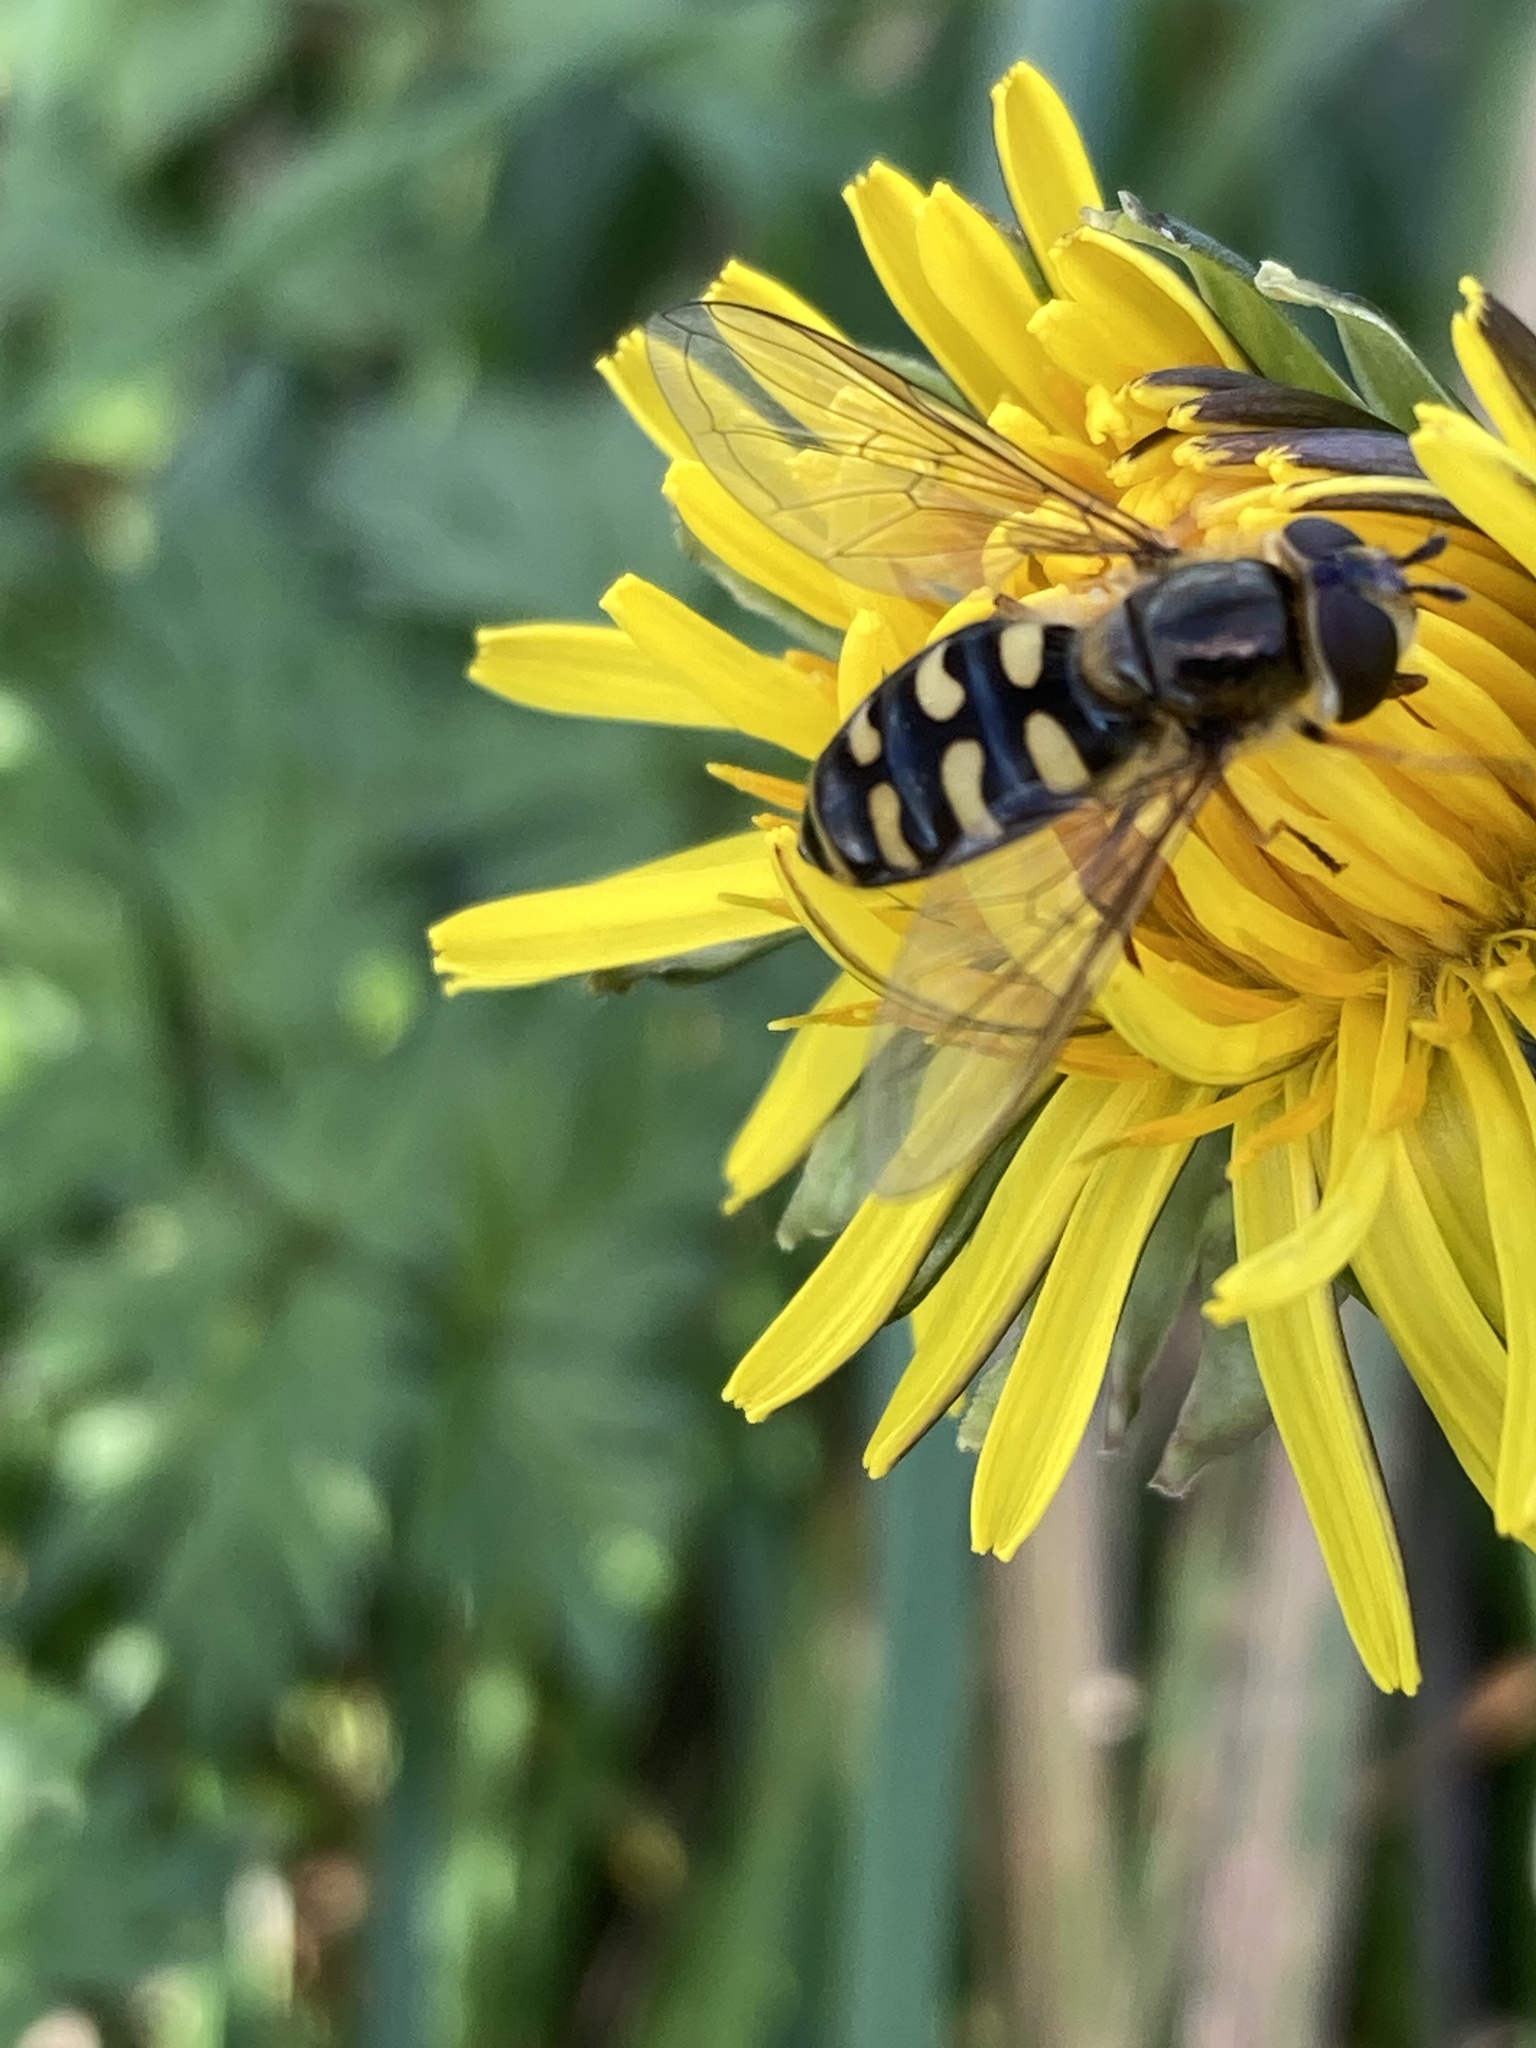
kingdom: Animalia
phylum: Arthropoda
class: Insecta
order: Diptera
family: Syrphidae
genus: Eupeodes
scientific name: Eupeodes luniger
